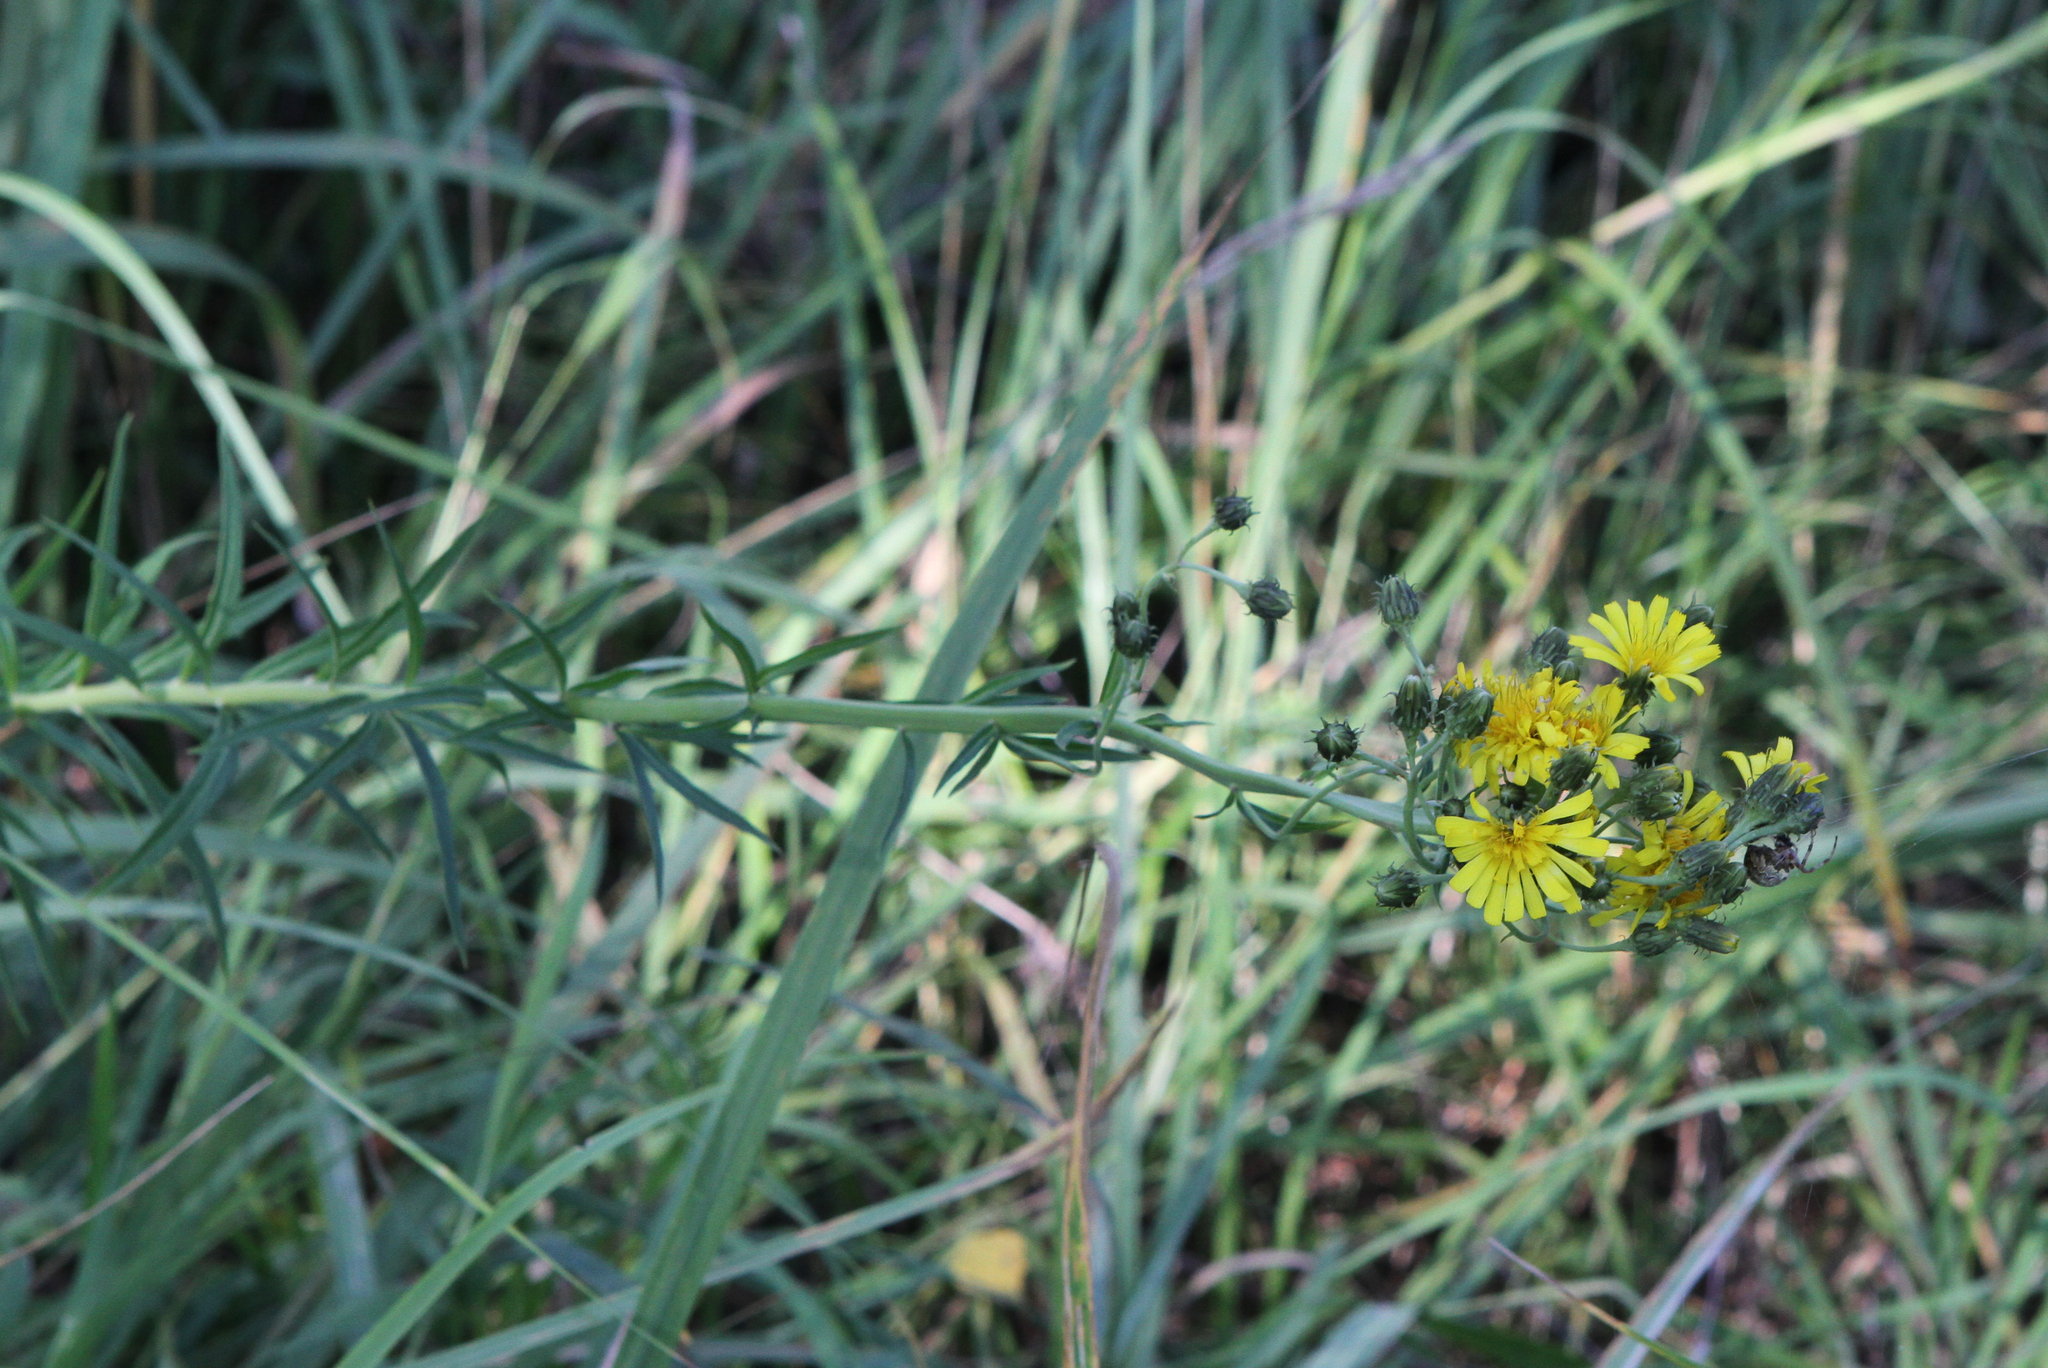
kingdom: Plantae
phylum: Tracheophyta
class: Magnoliopsida
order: Asterales
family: Asteraceae
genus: Hieracium
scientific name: Hieracium umbellatum
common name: Northern hawkweed
